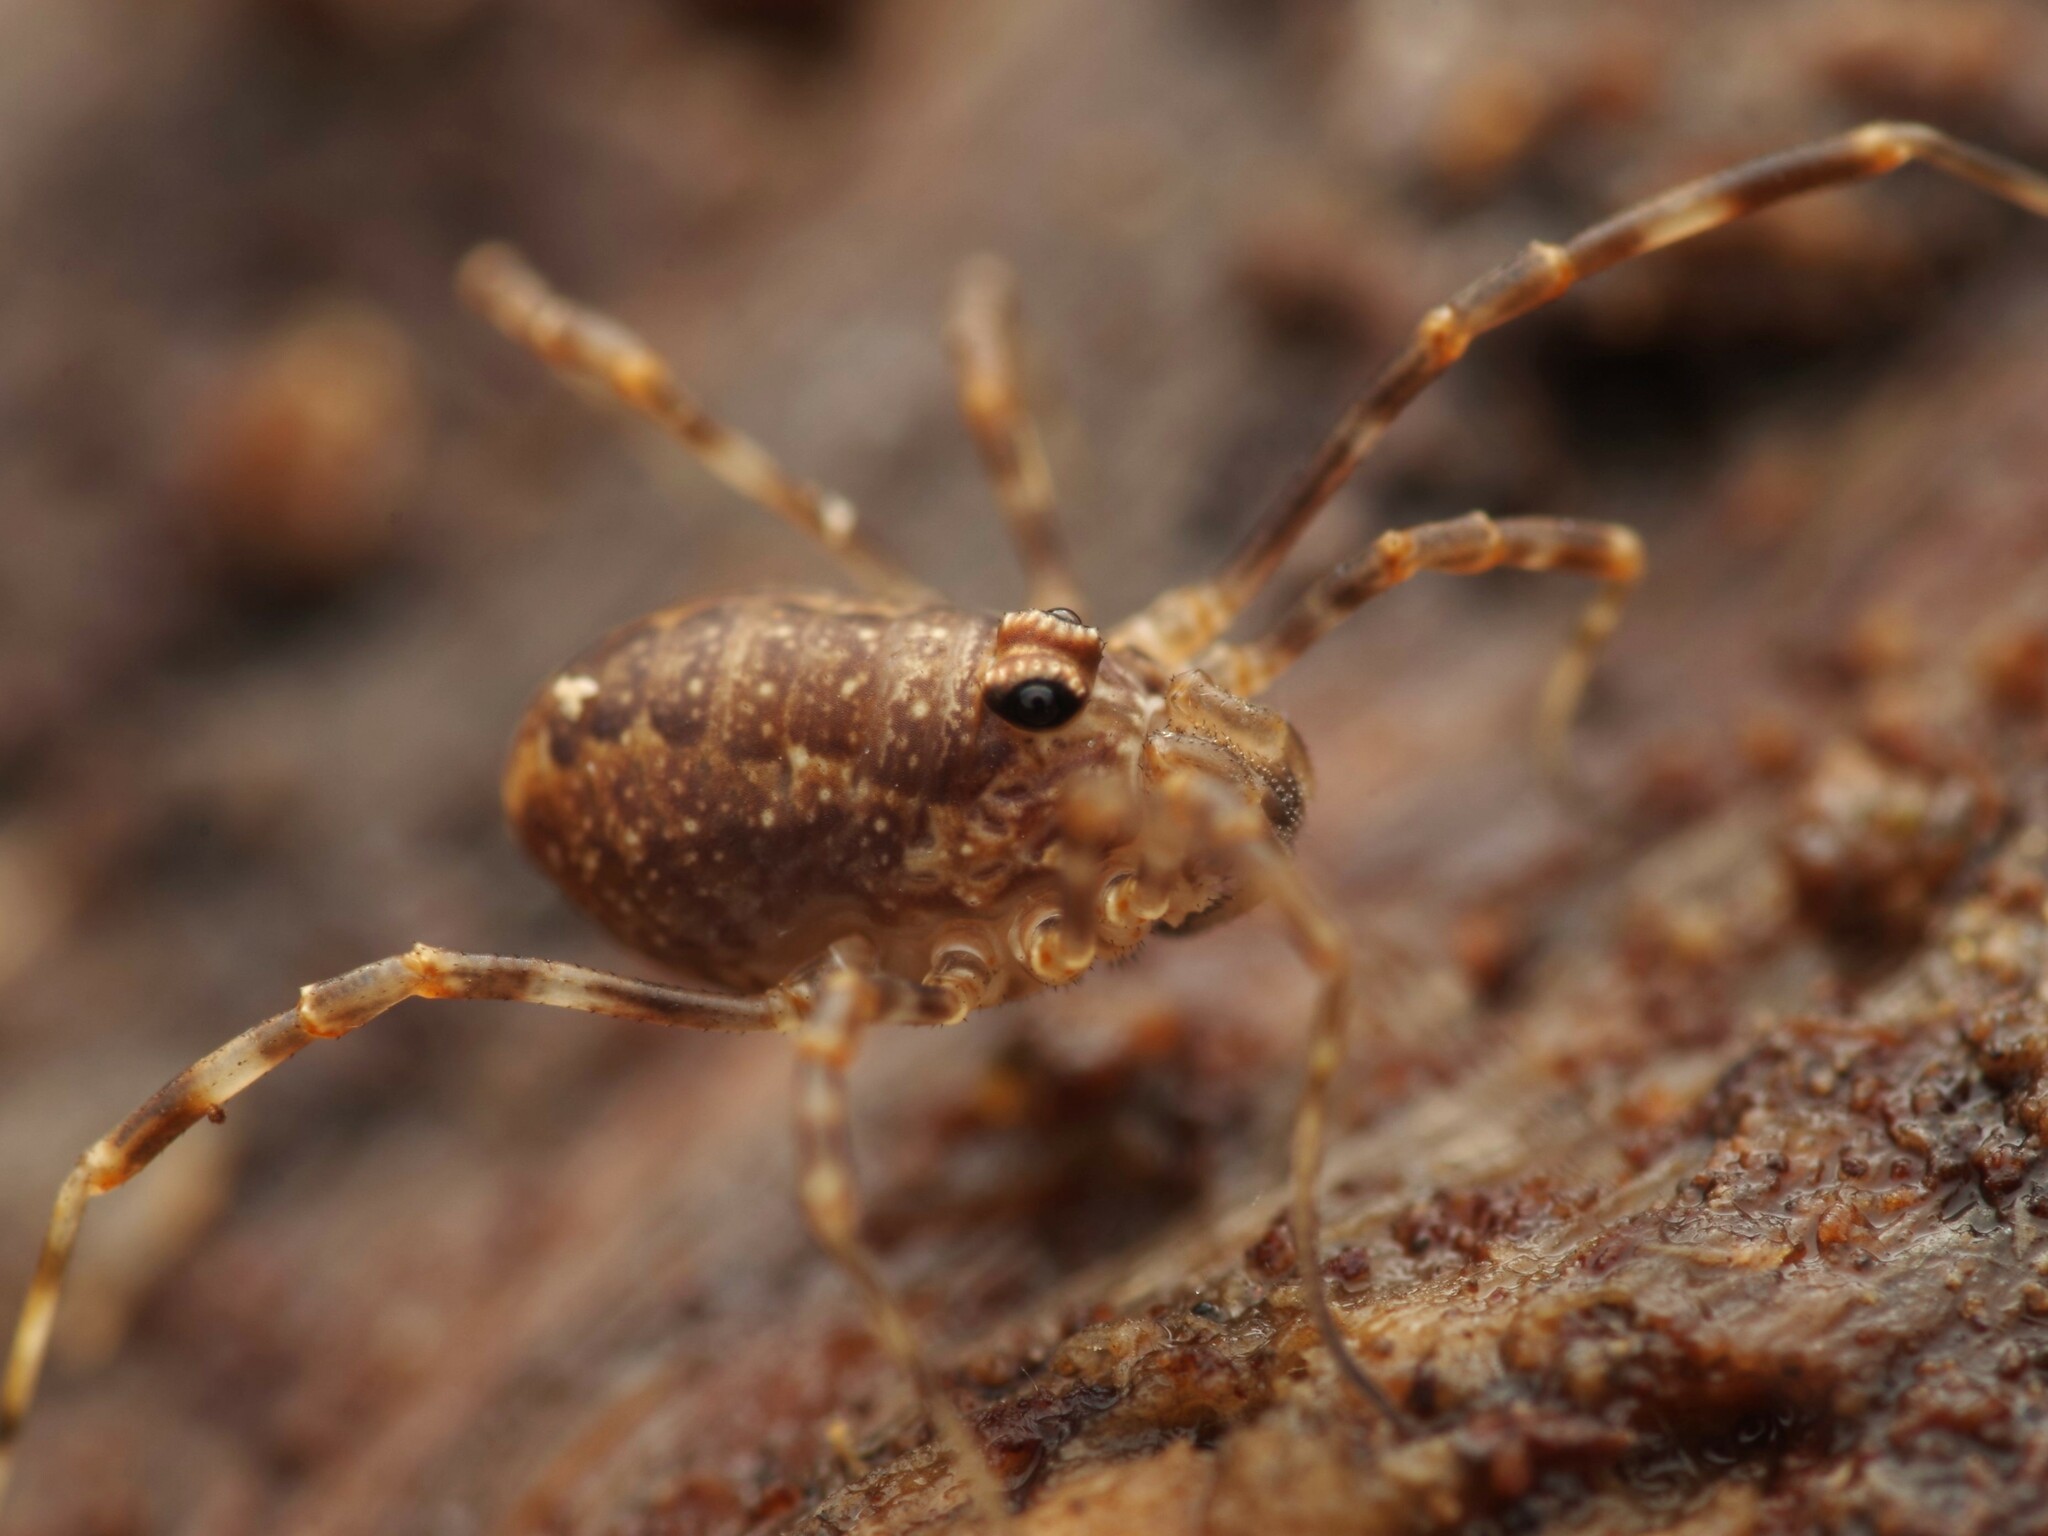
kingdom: Animalia
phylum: Arthropoda
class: Arachnida
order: Opiliones
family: Phalangiidae
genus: Rilaena
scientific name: Rilaena triangularis
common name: Spring harvestman
